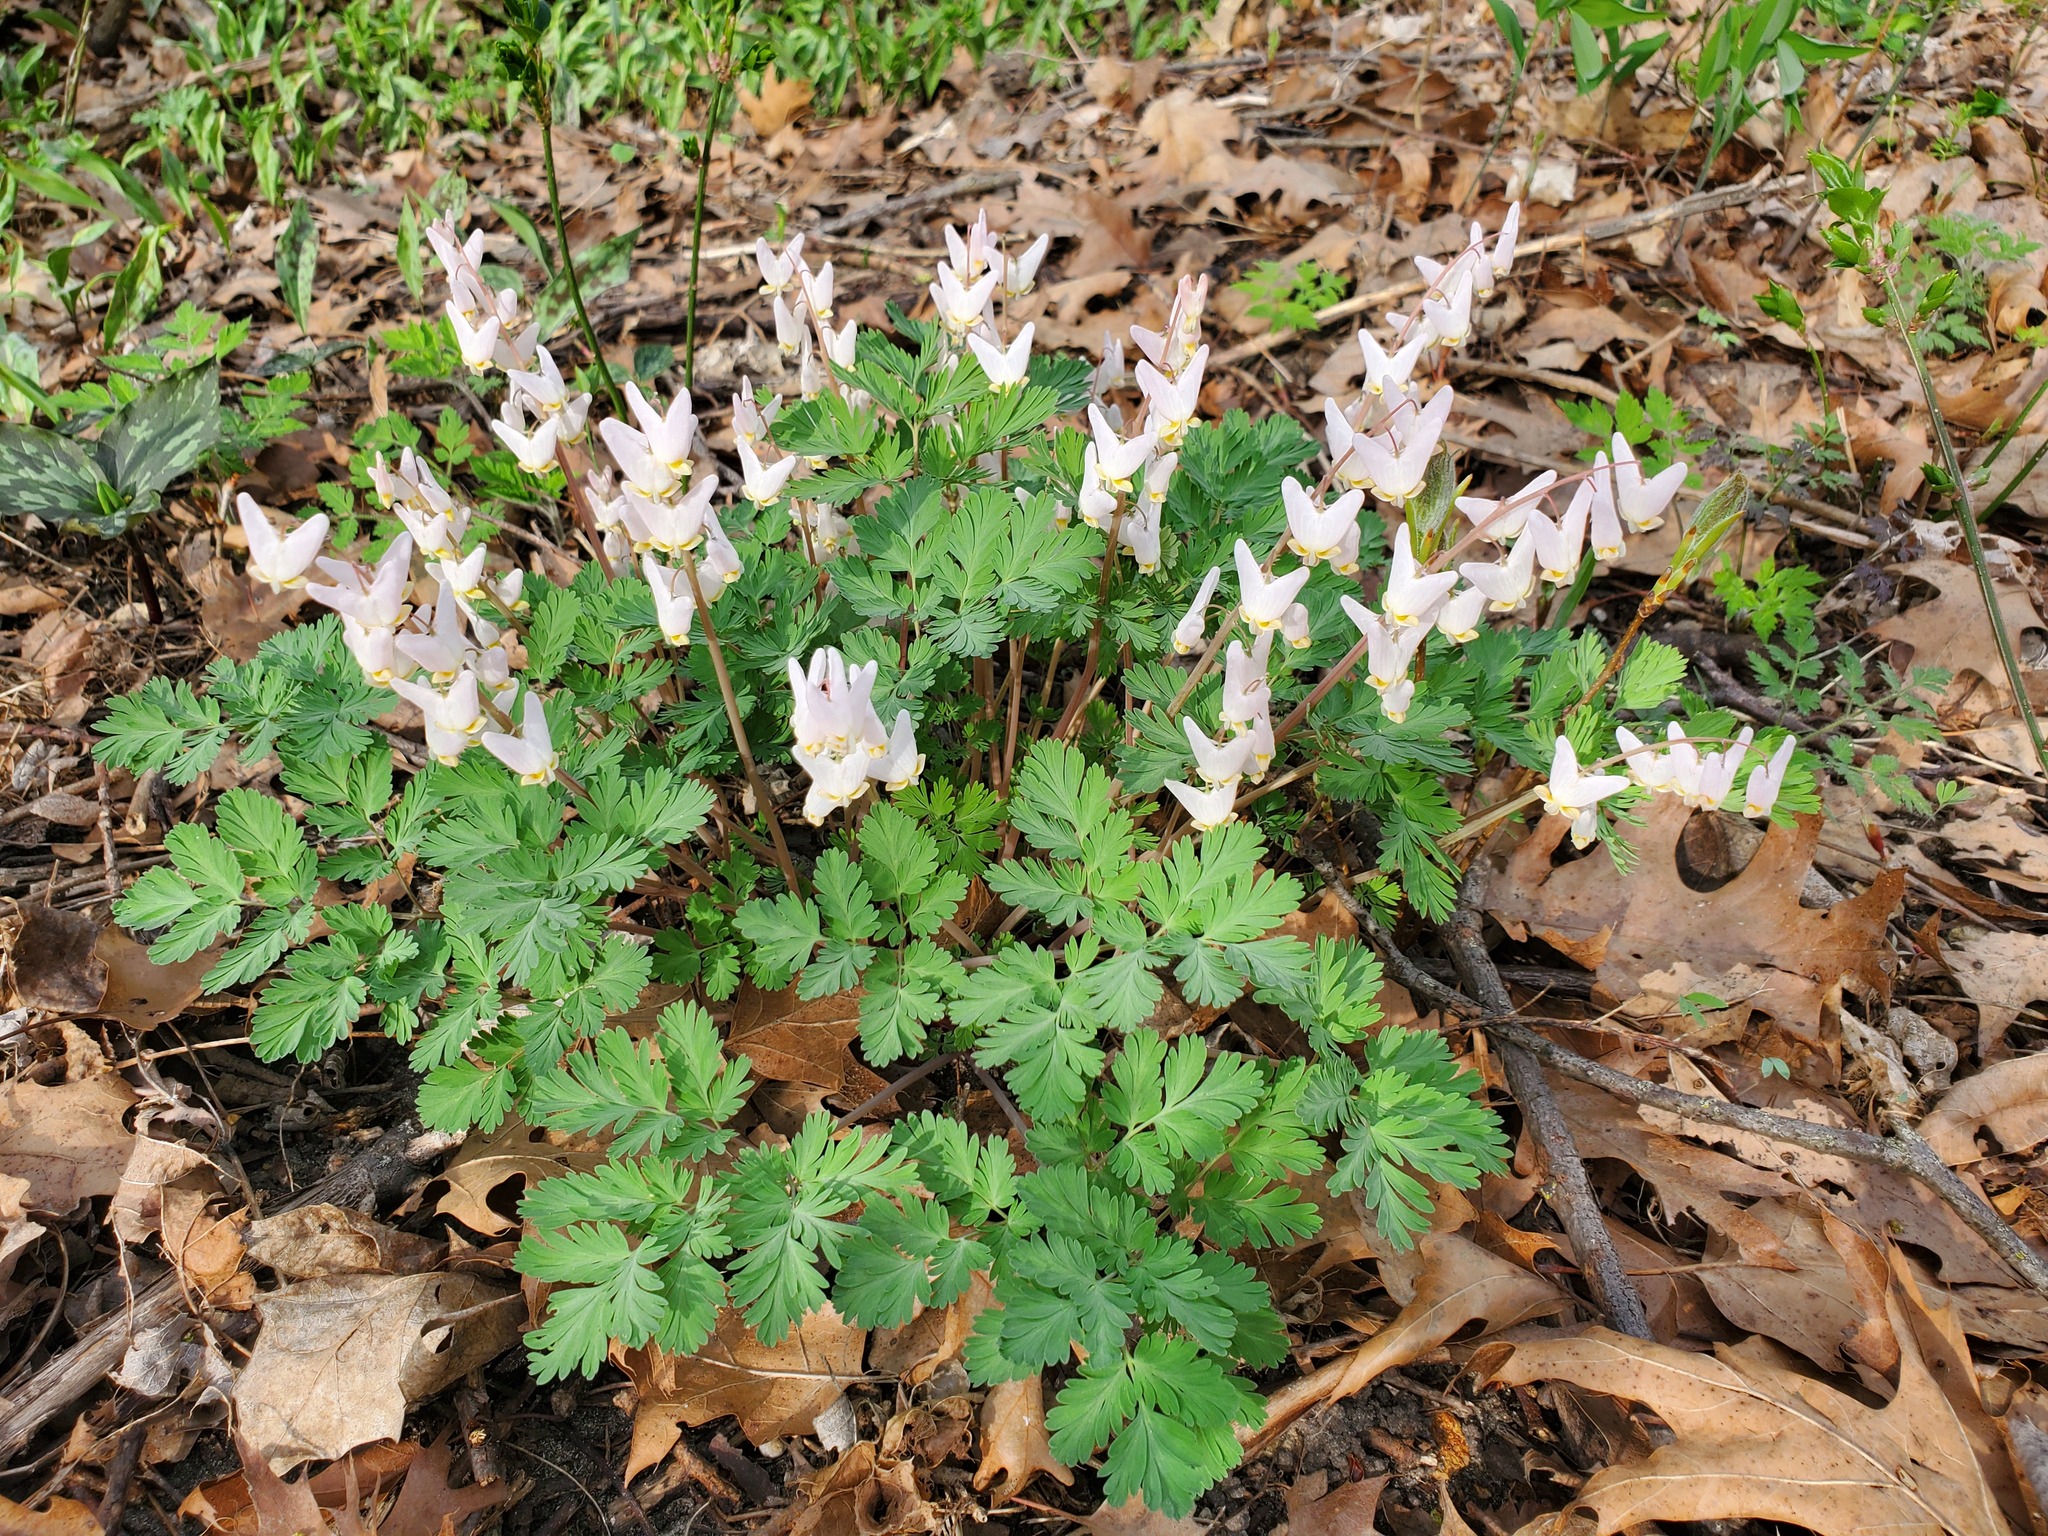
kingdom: Plantae
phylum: Tracheophyta
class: Magnoliopsida
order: Ranunculales
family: Papaveraceae
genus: Dicentra
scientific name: Dicentra cucullaria
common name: Dutchman's breeches
